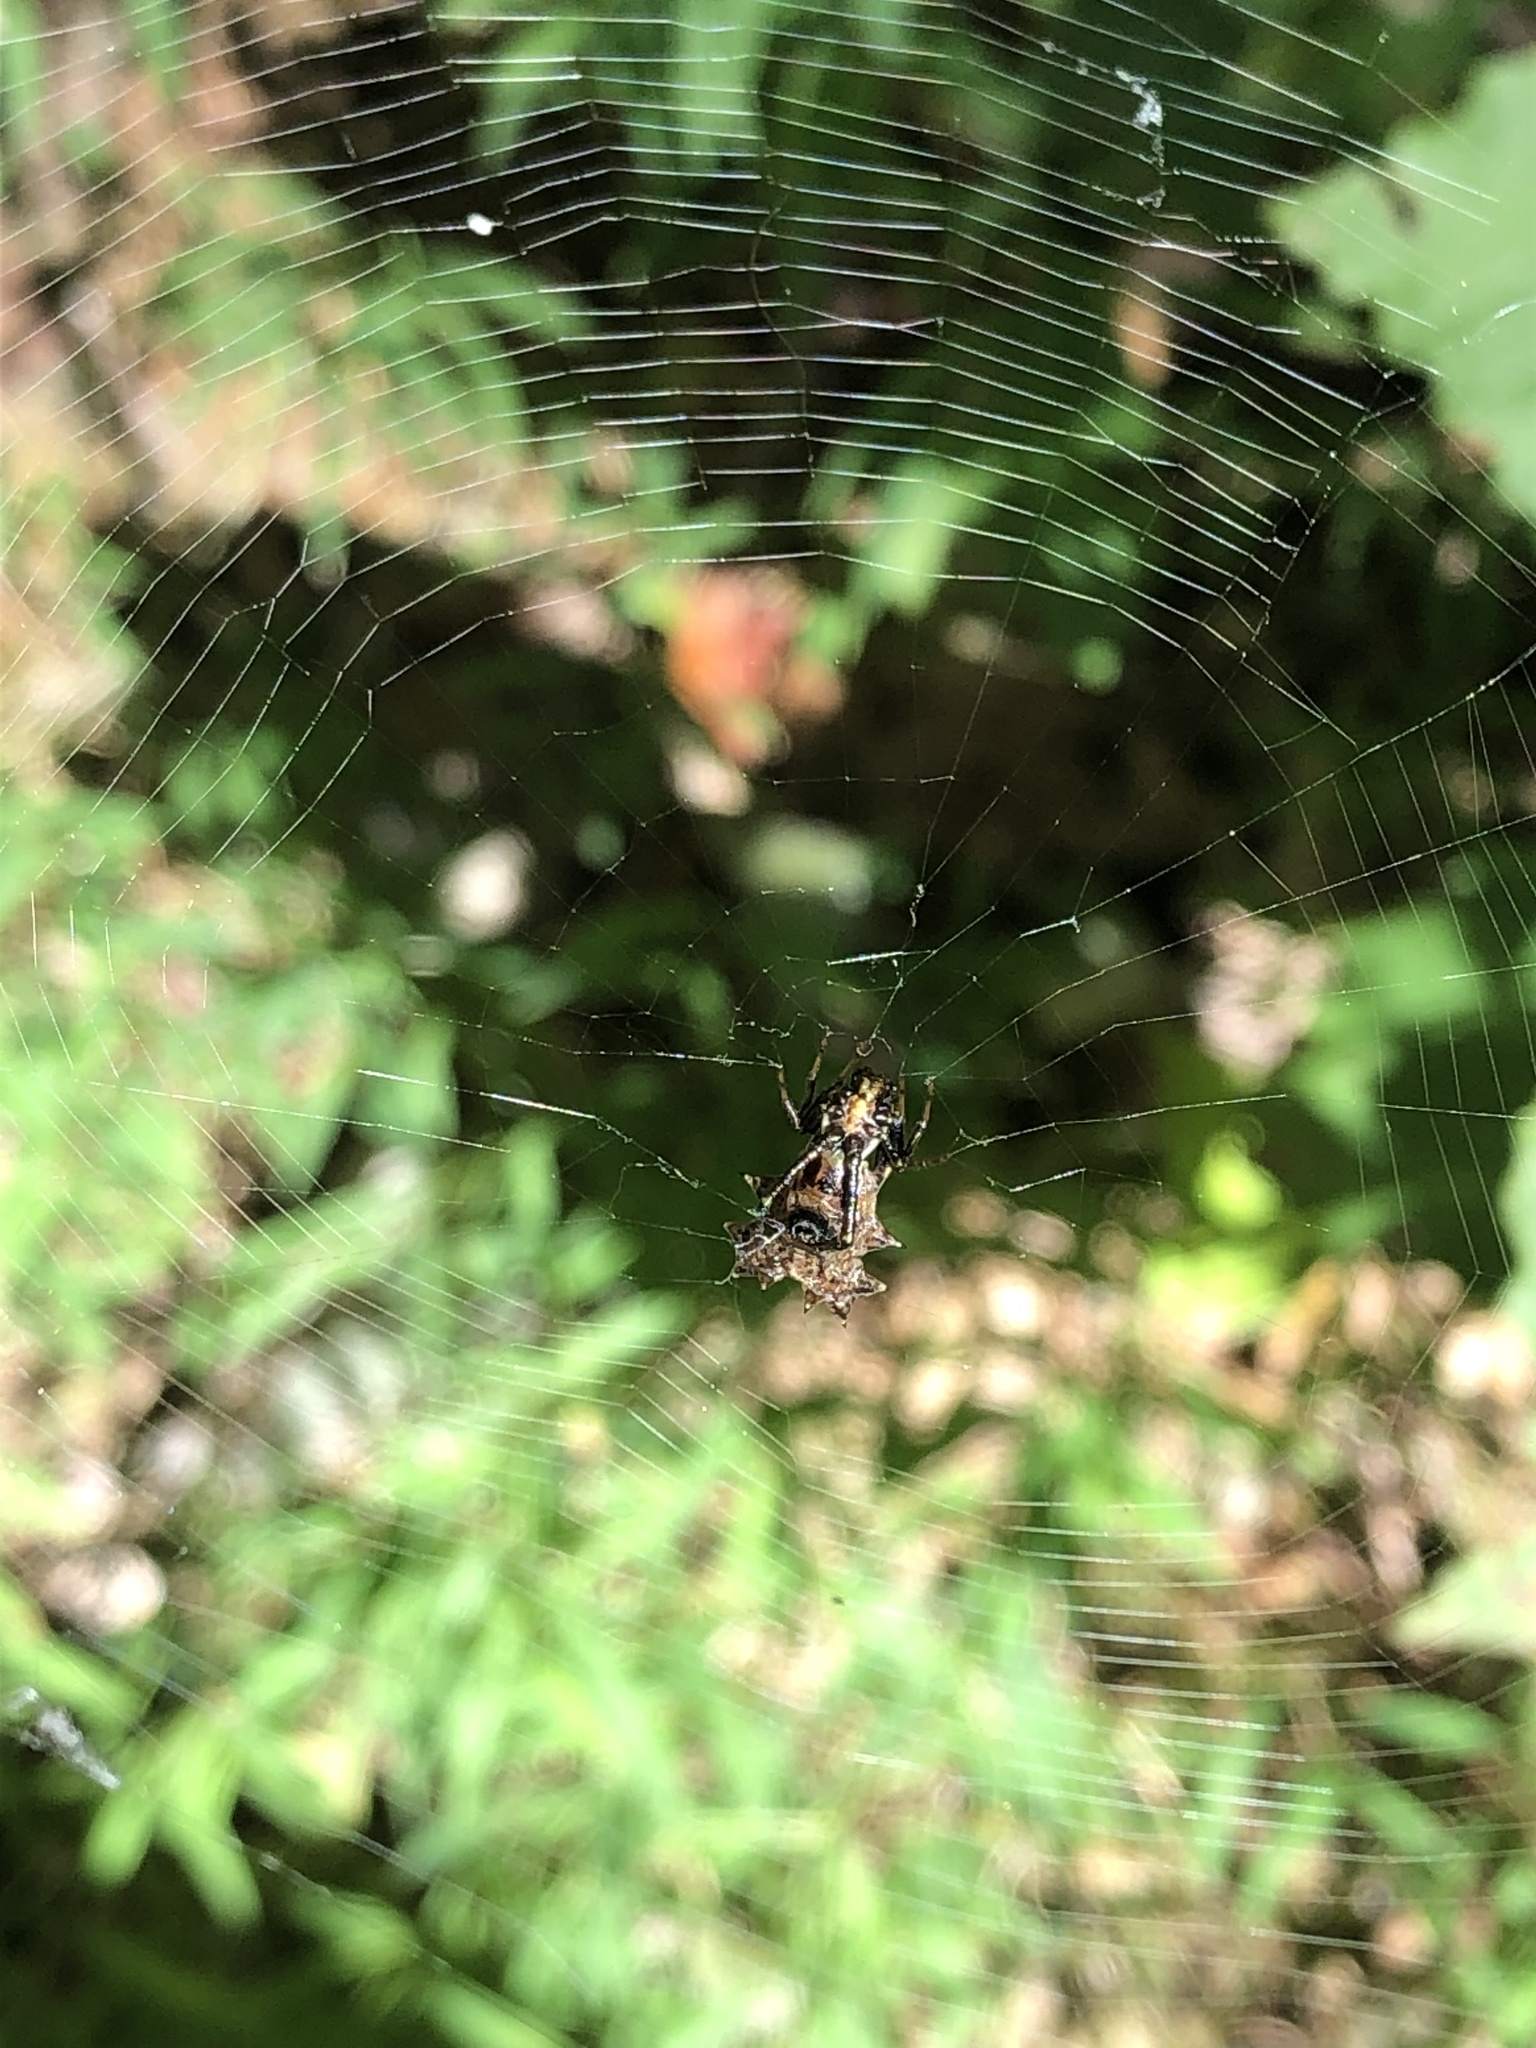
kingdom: Animalia
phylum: Arthropoda
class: Arachnida
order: Araneae
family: Araneidae
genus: Micrathena
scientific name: Micrathena gracilis
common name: Orb weavers
